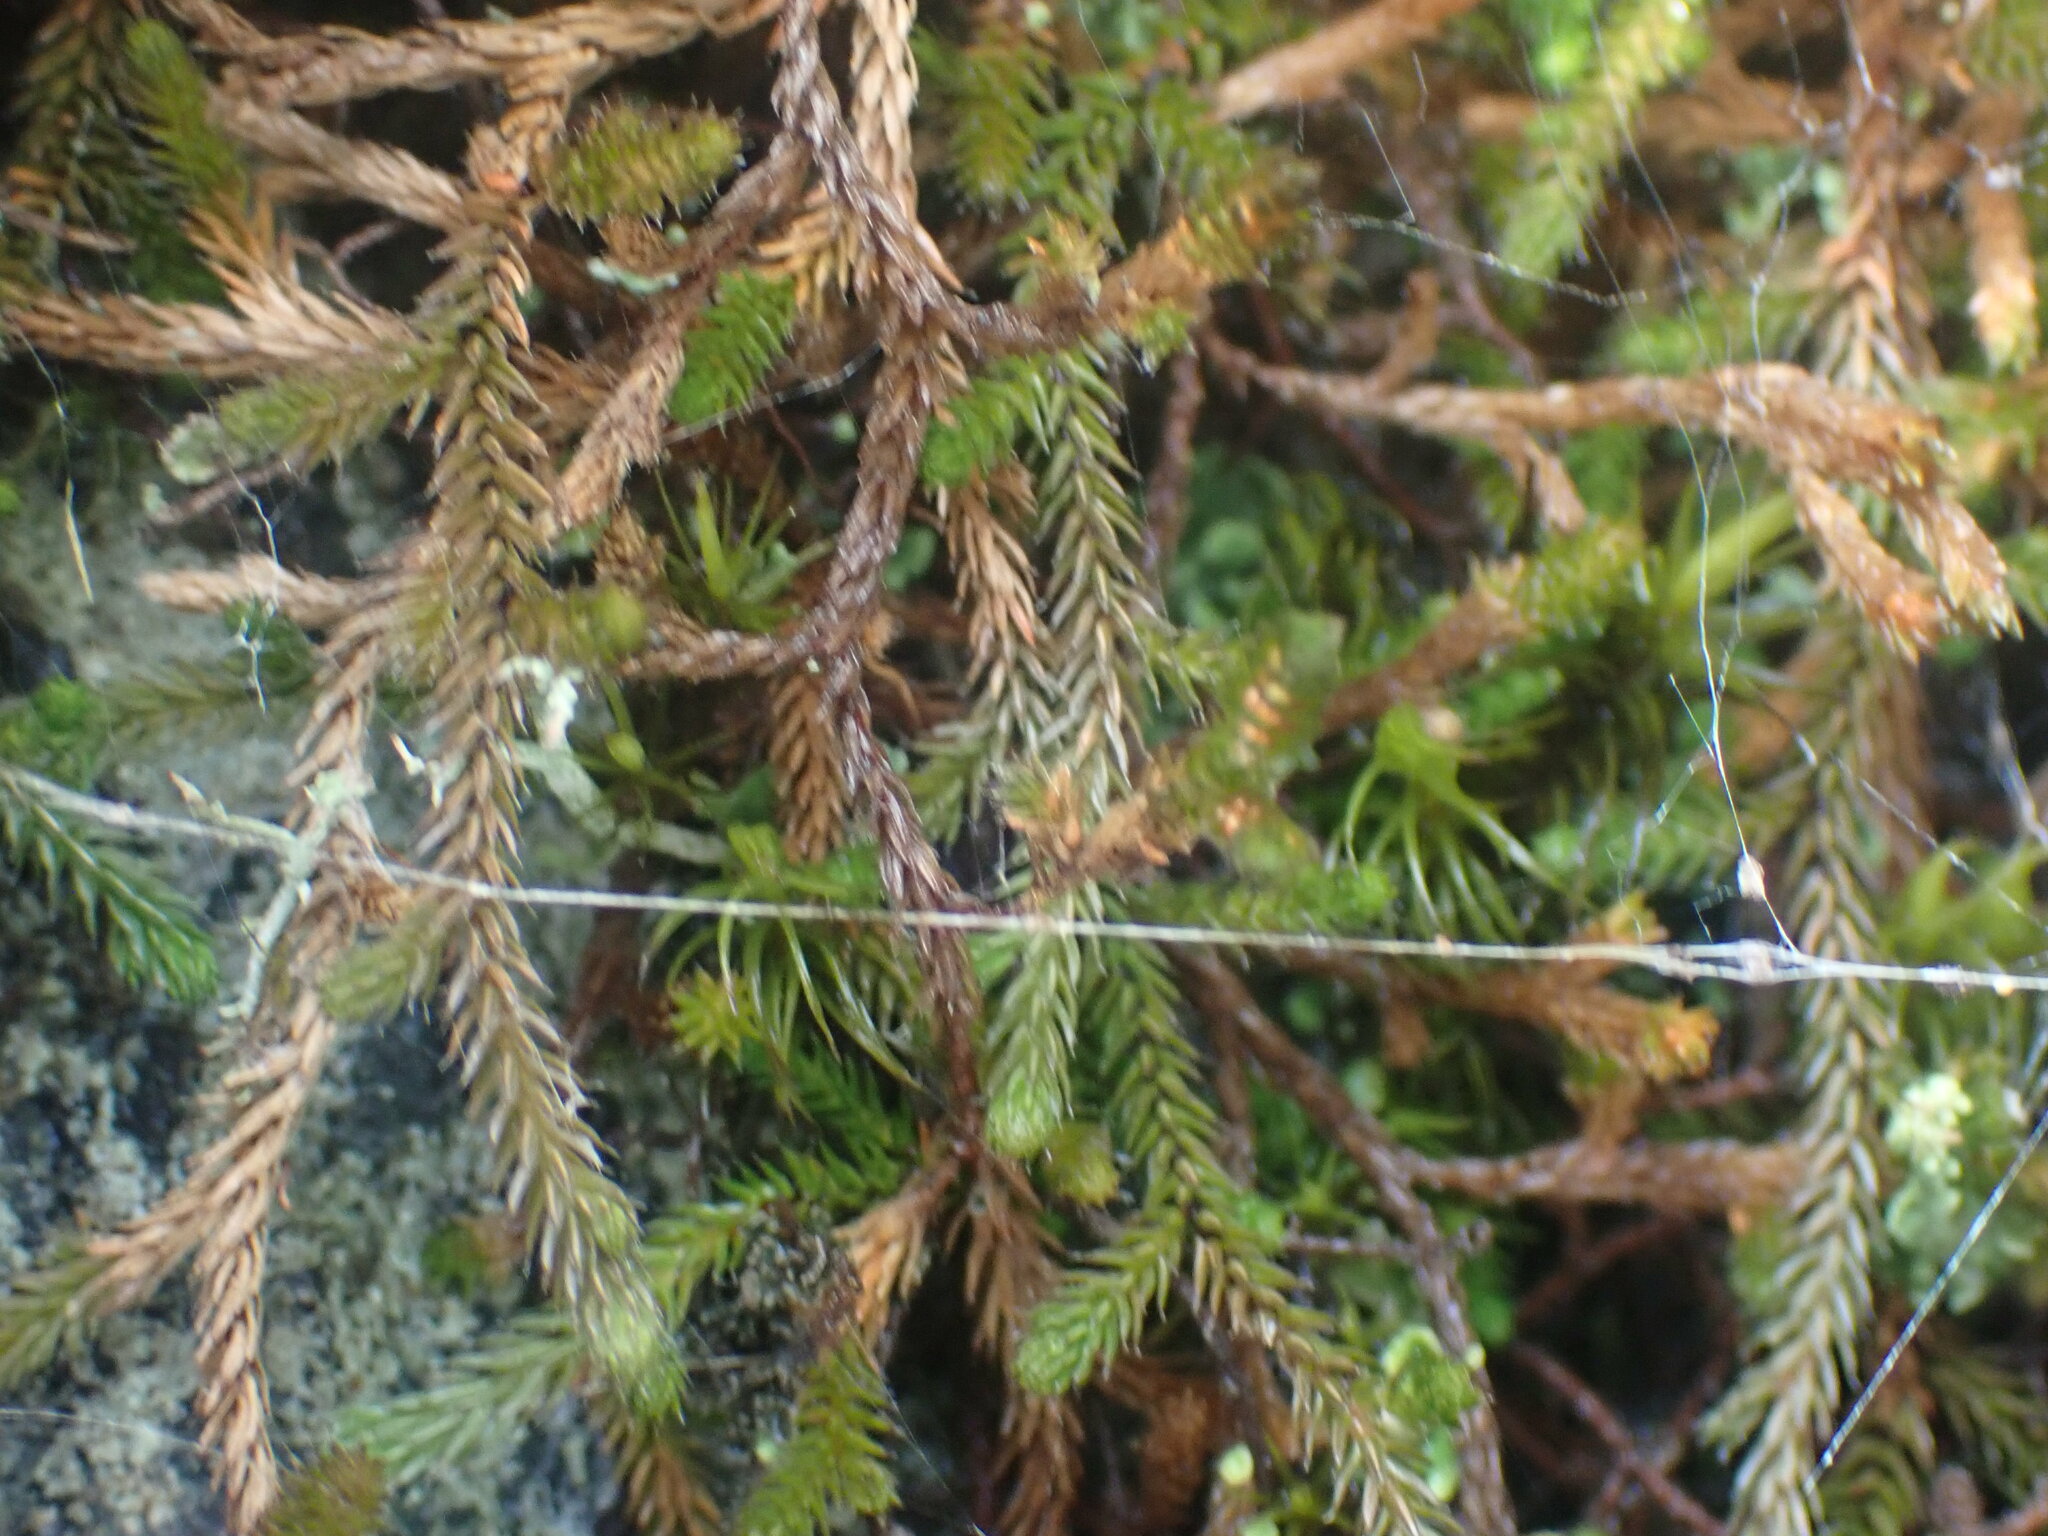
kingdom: Plantae
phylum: Tracheophyta
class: Lycopodiopsida
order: Selaginellales
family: Selaginellaceae
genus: Selaginella
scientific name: Selaginella wallacei
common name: Wallace's selaginella
